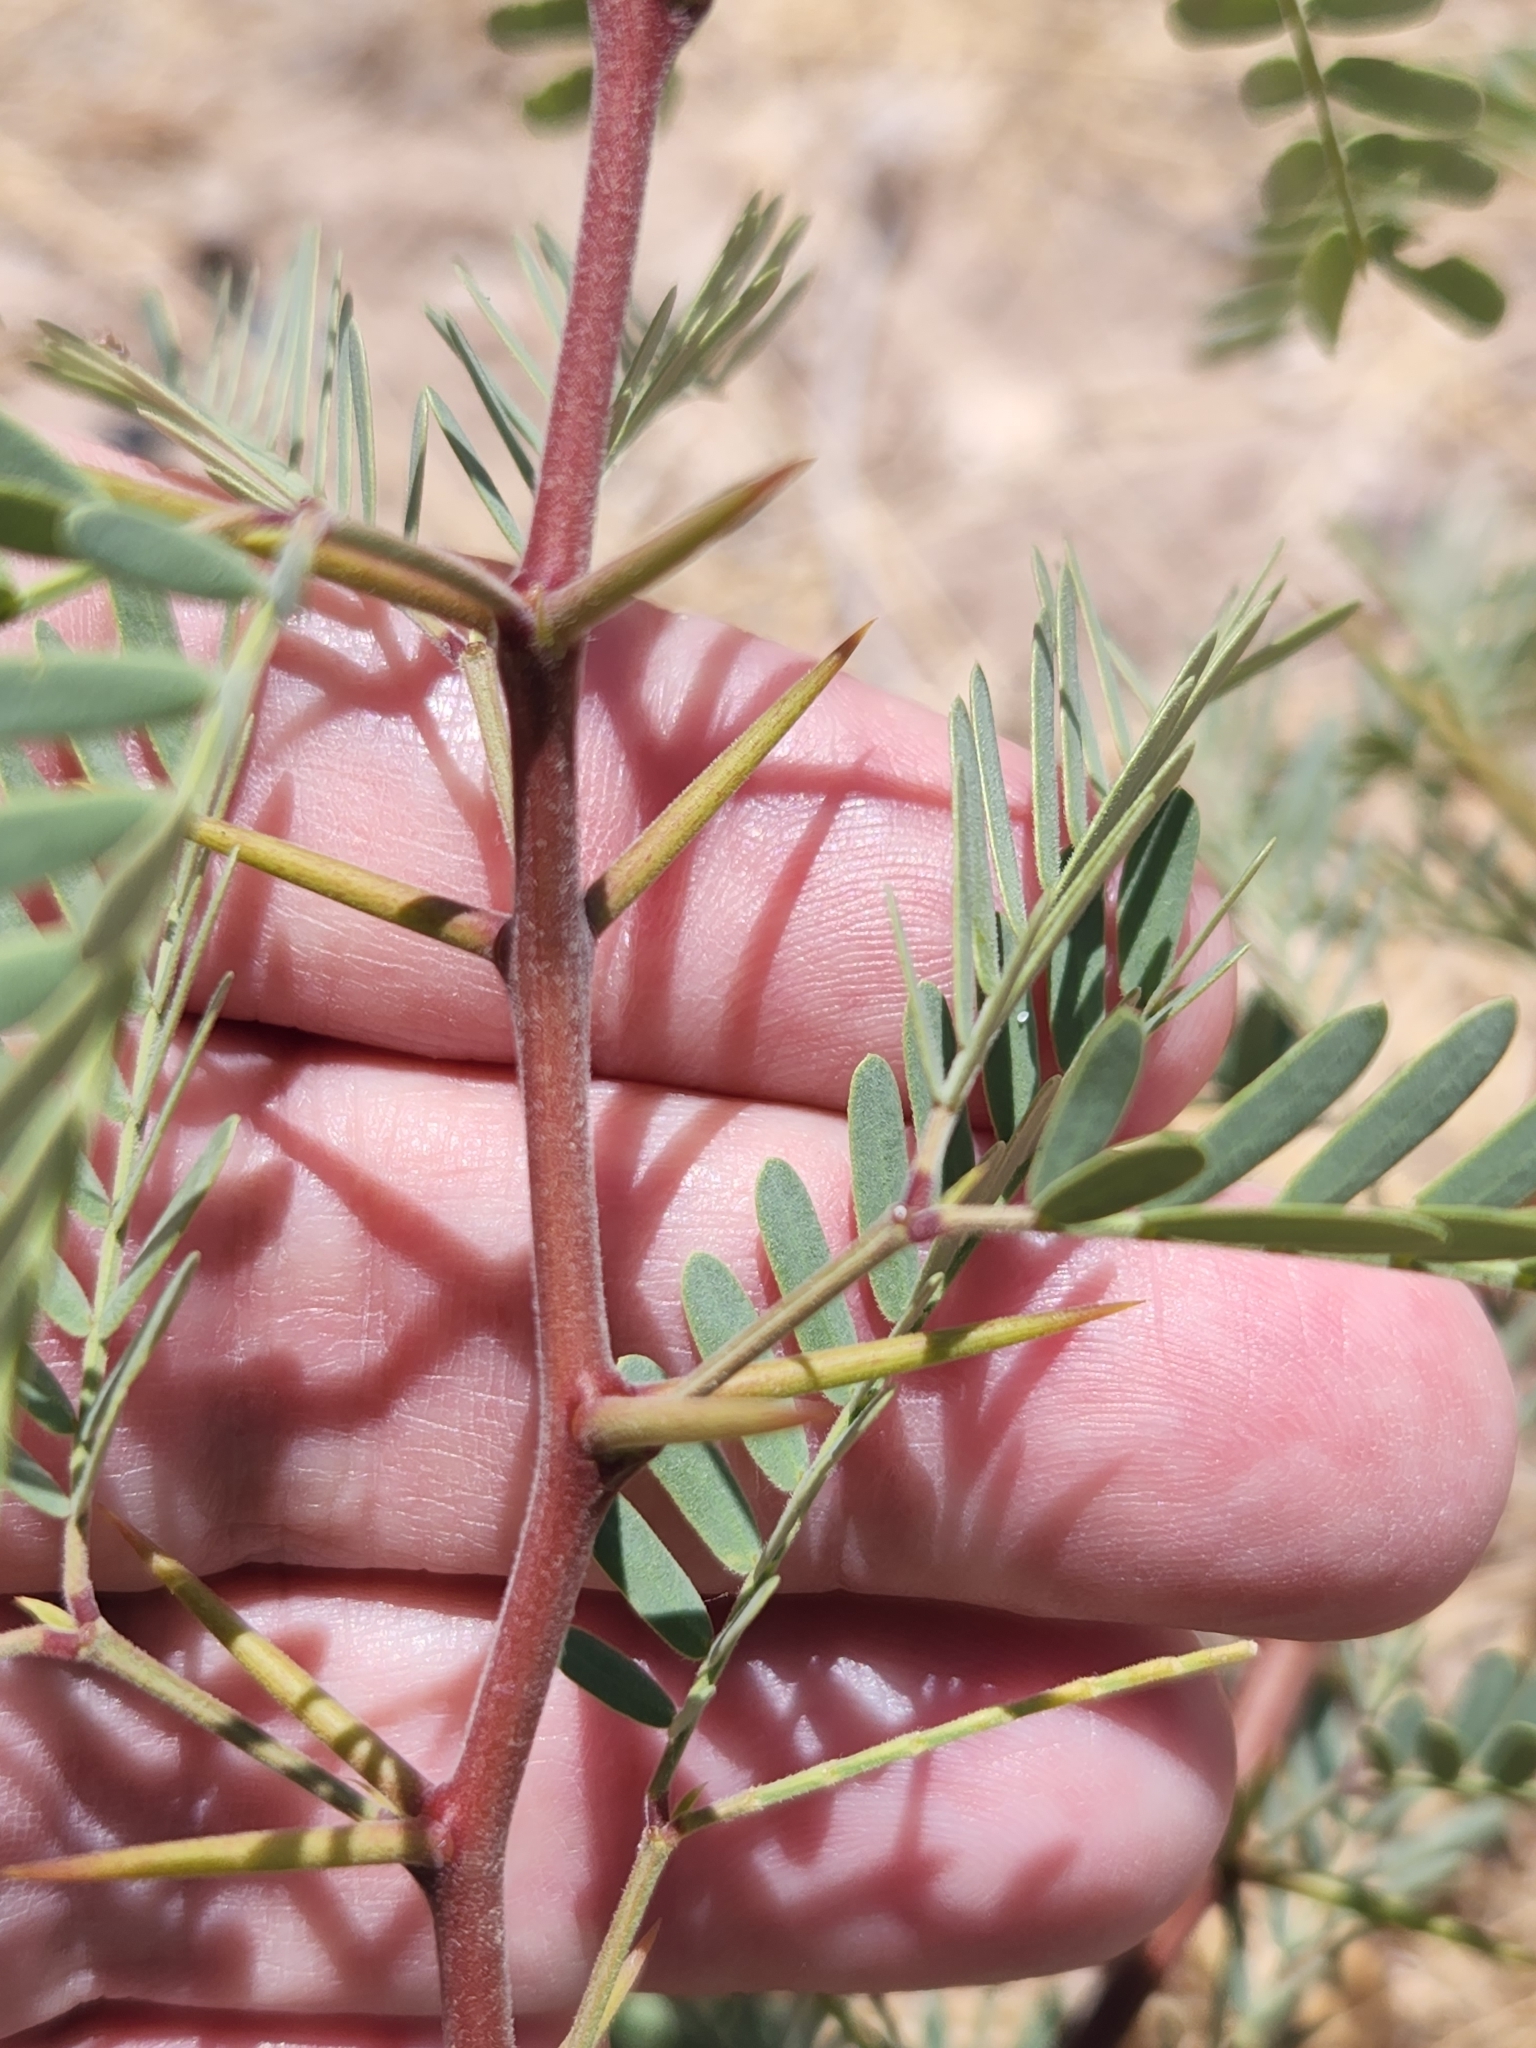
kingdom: Plantae
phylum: Tracheophyta
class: Magnoliopsida
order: Fabales
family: Fabaceae
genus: Prosopis
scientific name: Prosopis pubescens
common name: Screw-bean
